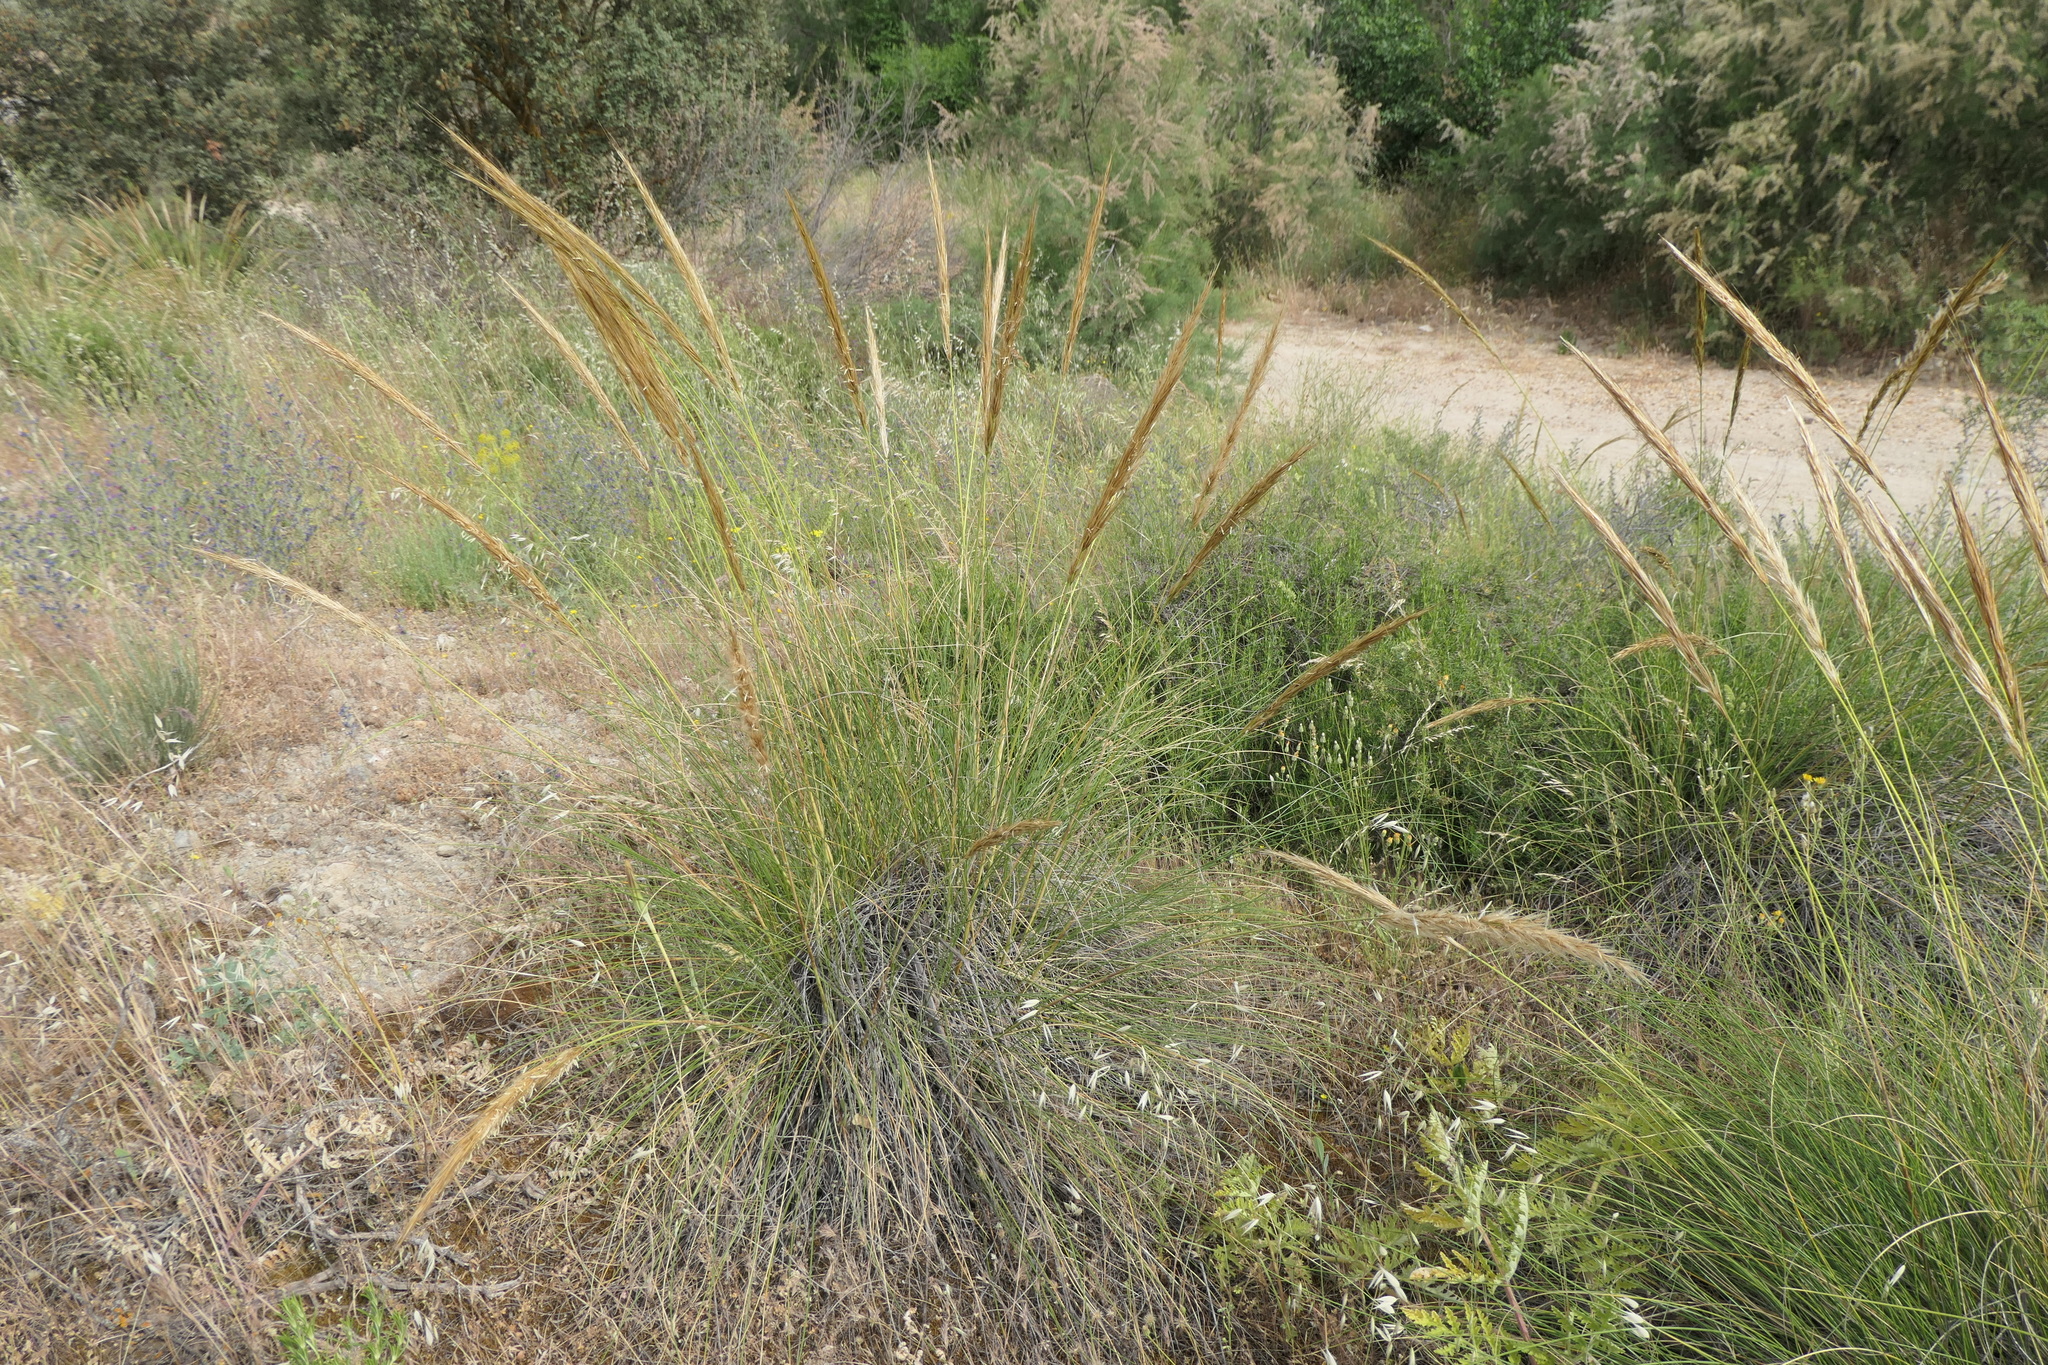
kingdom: Plantae
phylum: Tracheophyta
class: Liliopsida
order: Poales
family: Poaceae
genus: Macrochloa
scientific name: Macrochloa tenacissima
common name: Alfa grass
